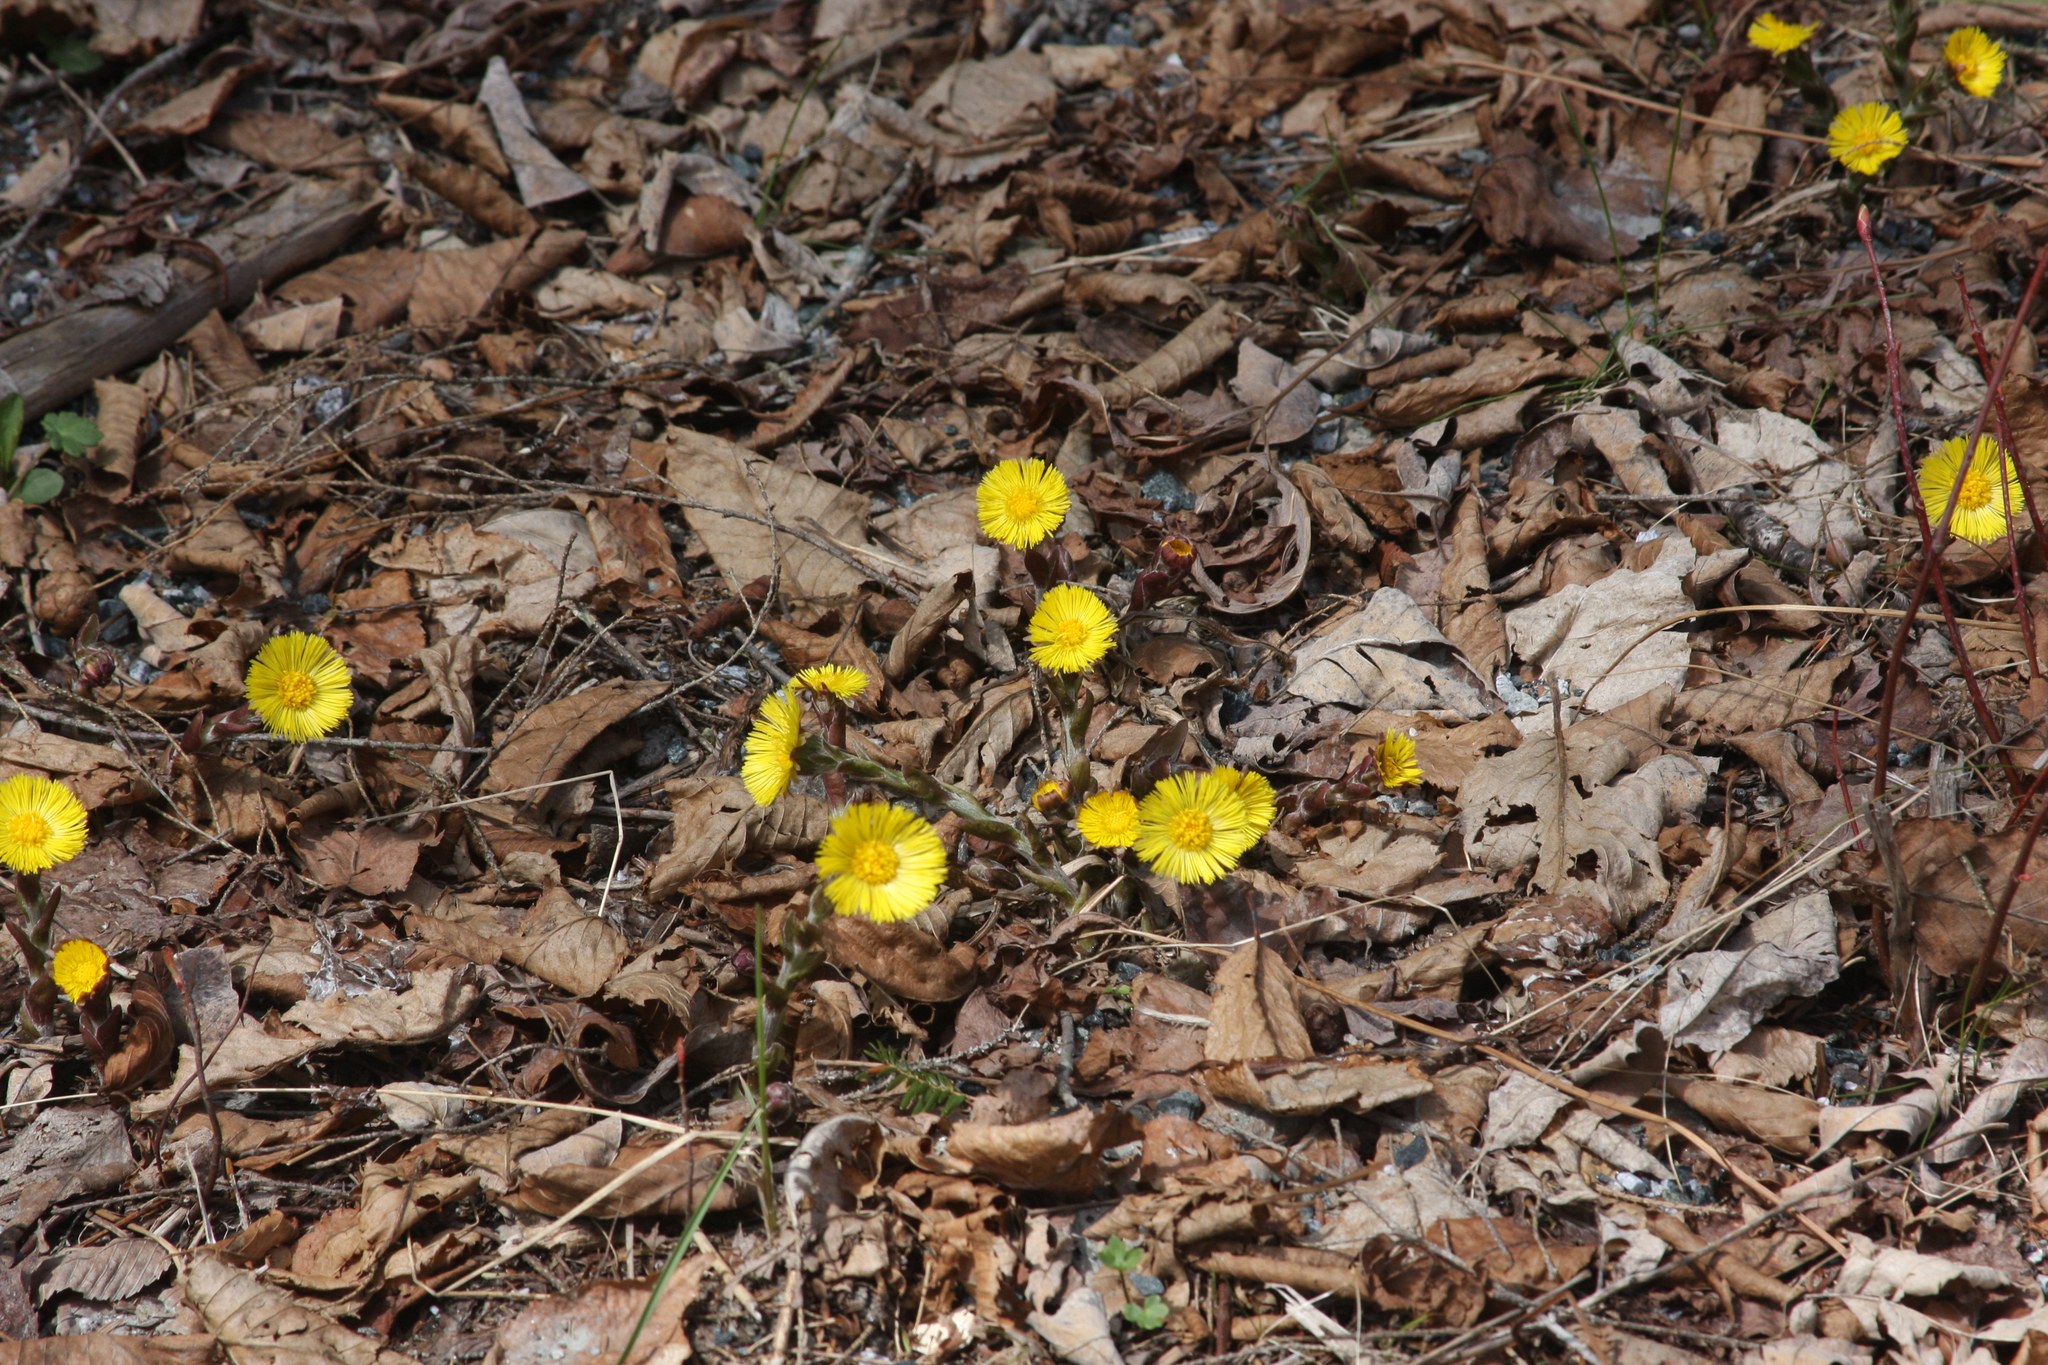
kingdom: Plantae
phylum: Tracheophyta
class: Magnoliopsida
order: Asterales
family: Asteraceae
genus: Tussilago
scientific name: Tussilago farfara
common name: Coltsfoot
